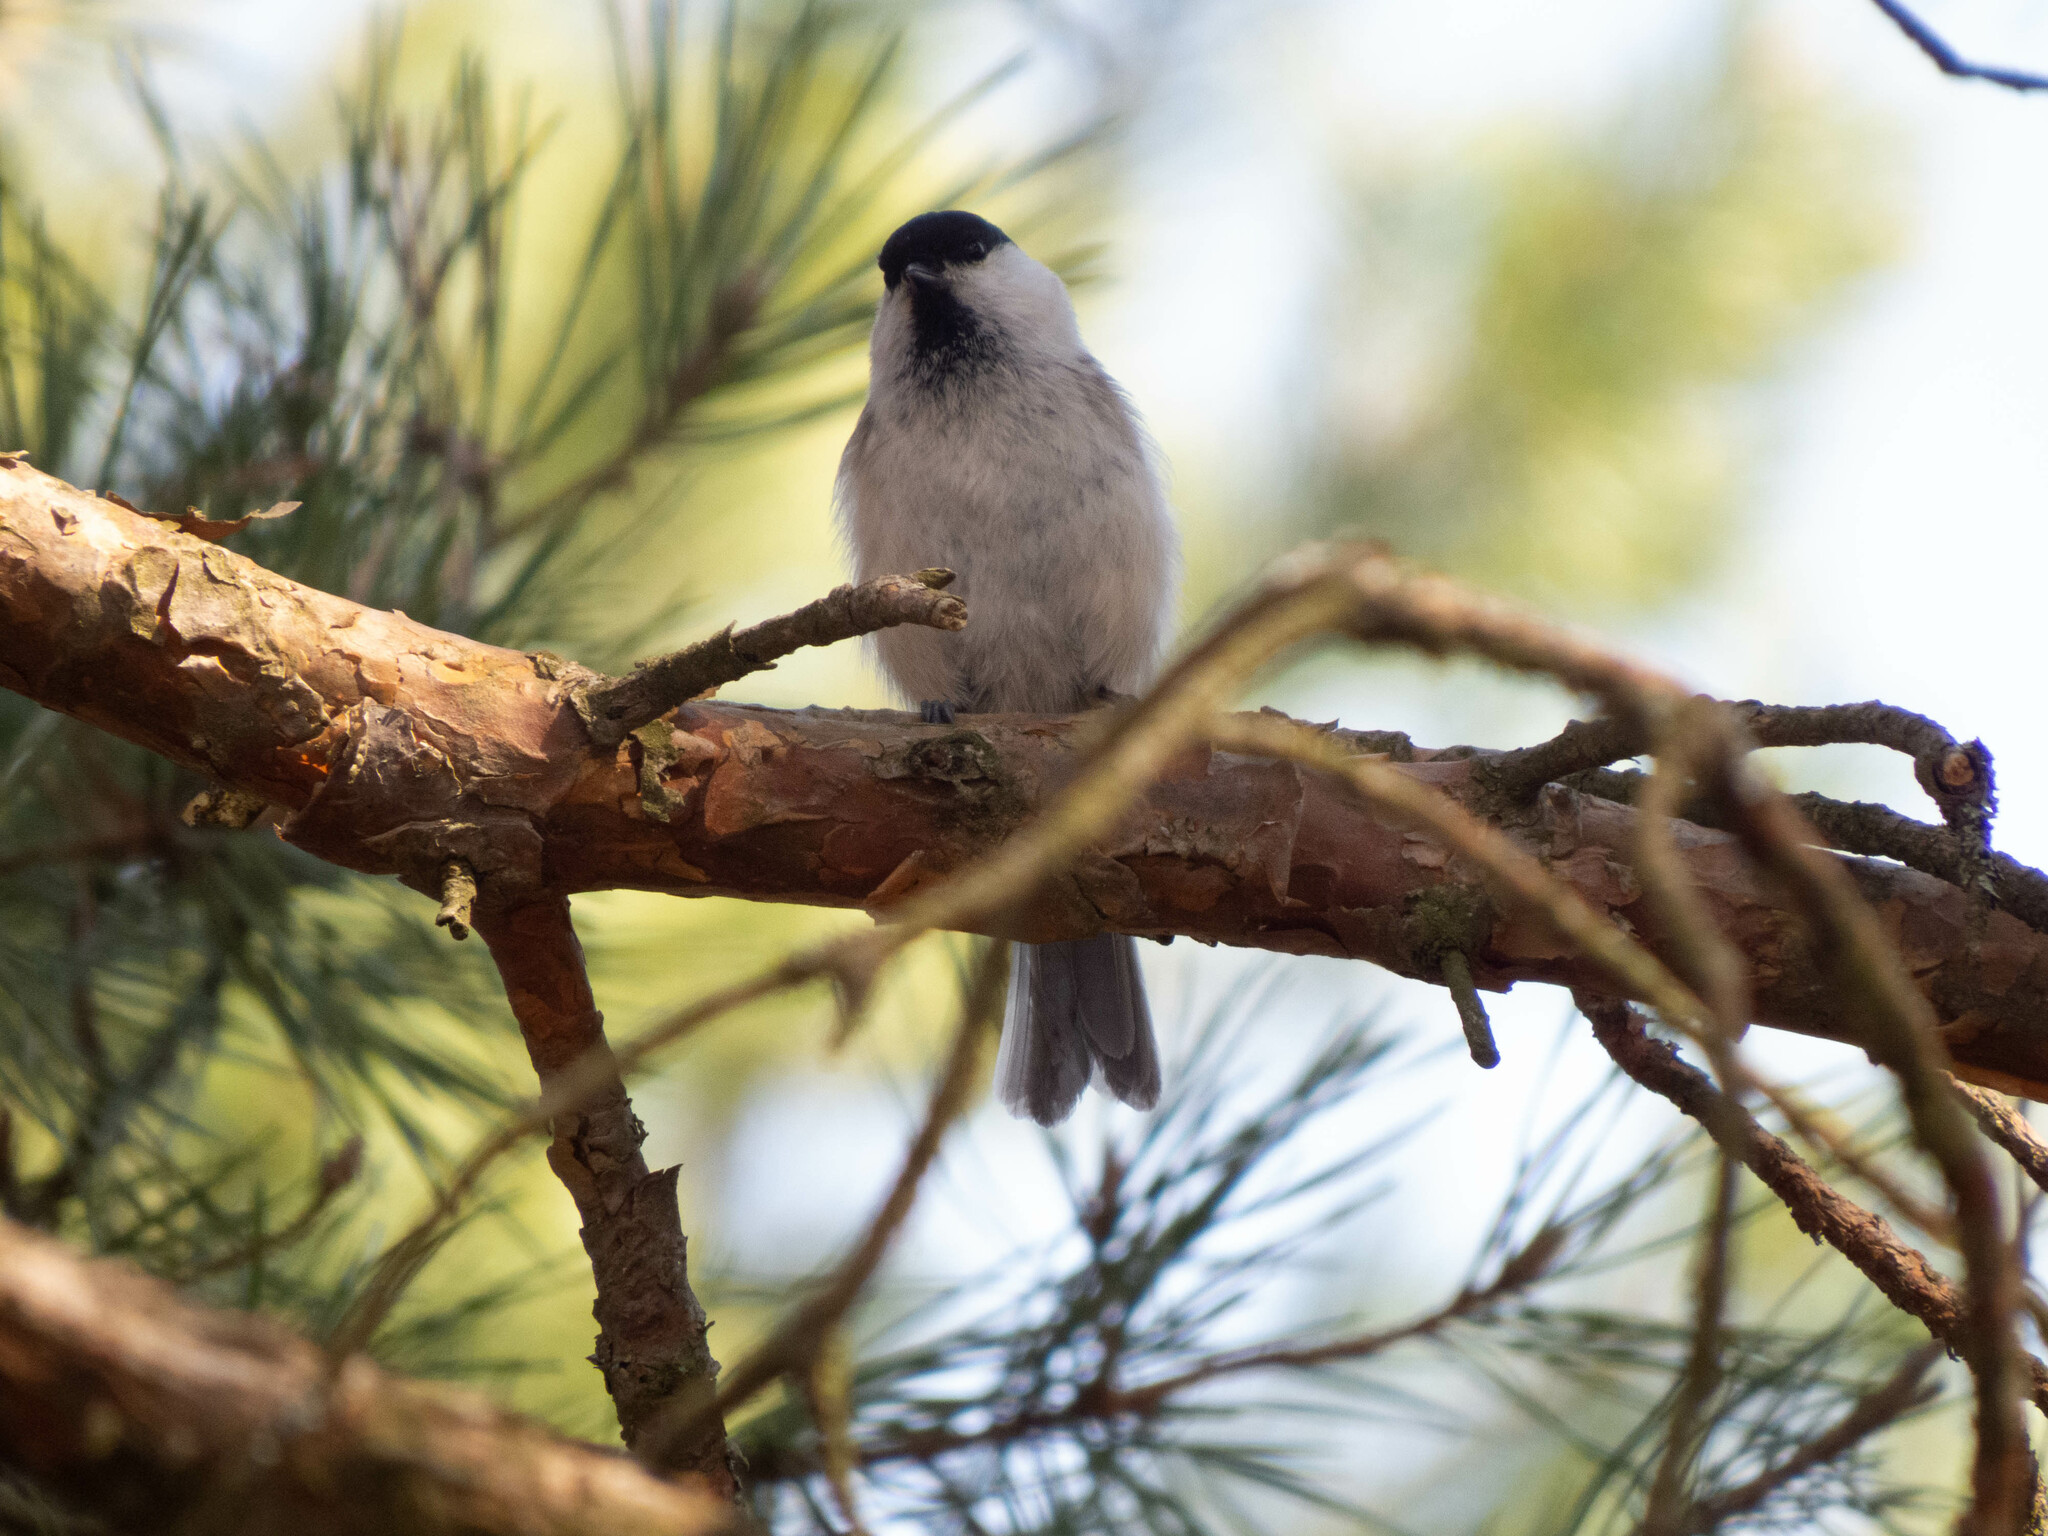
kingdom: Animalia
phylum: Chordata
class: Aves
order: Passeriformes
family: Paridae
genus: Poecile
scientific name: Poecile montanus
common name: Willow tit
